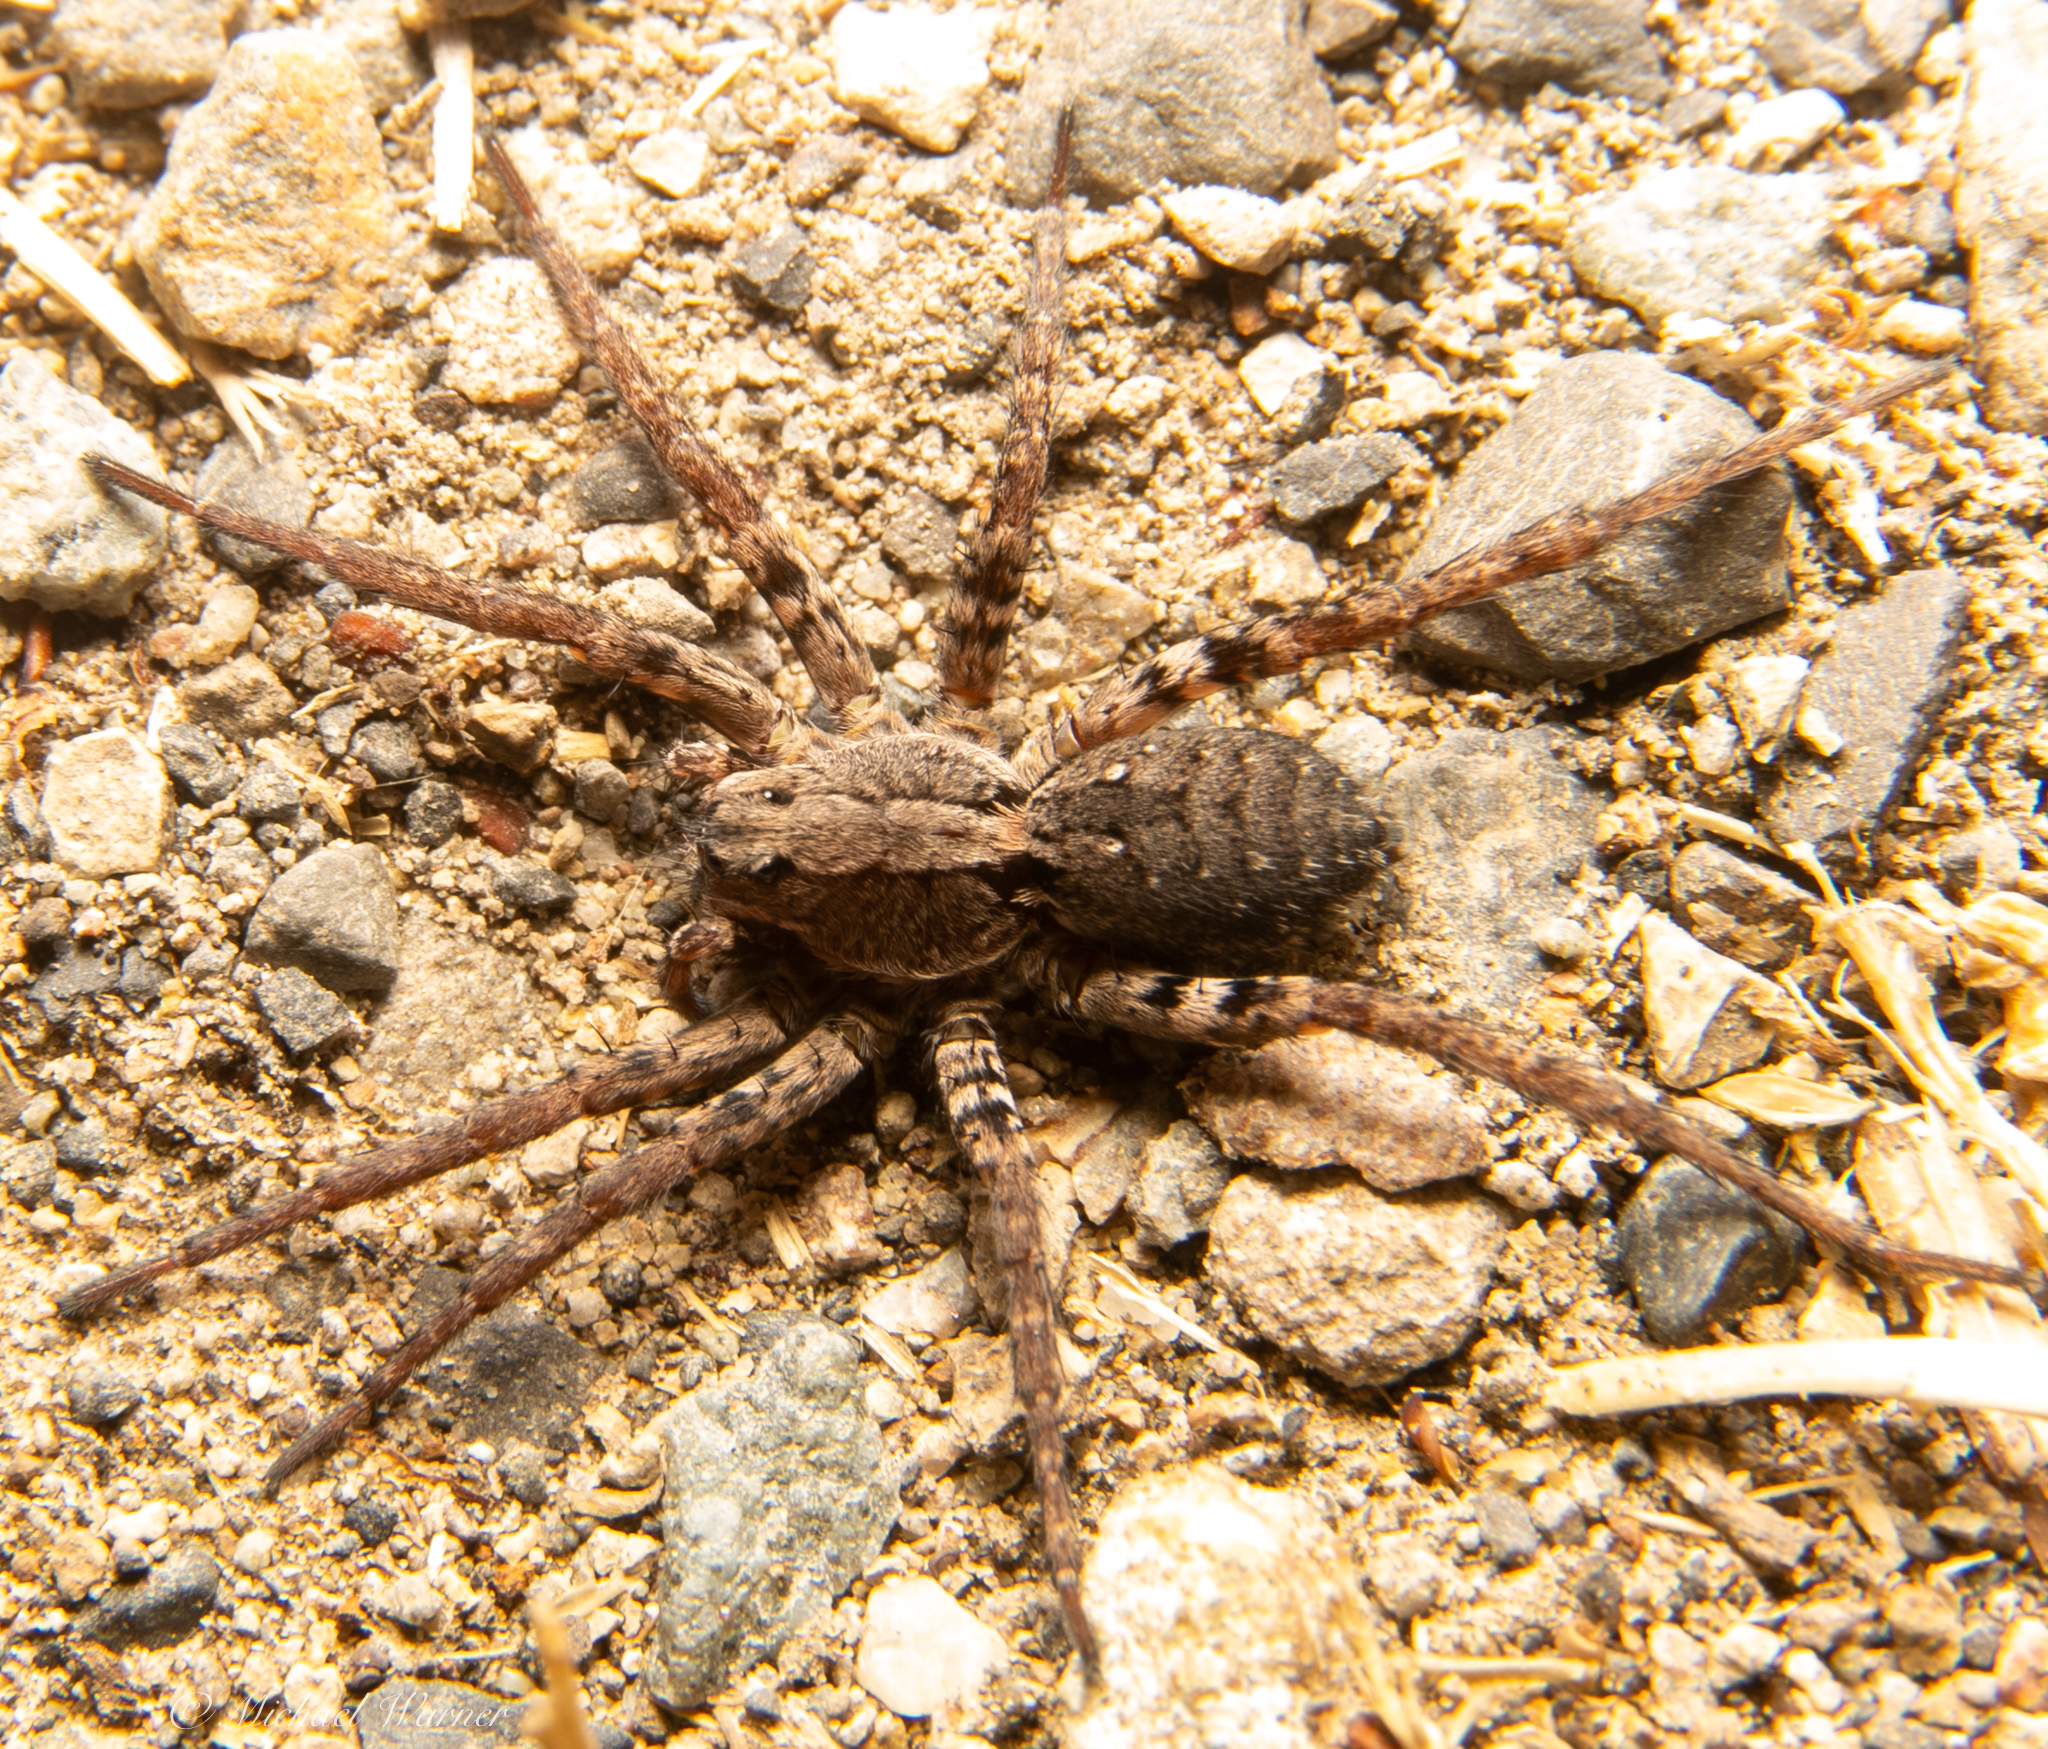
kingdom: Animalia
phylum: Arthropoda
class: Arachnida
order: Araneae
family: Lycosidae
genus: Alopecosa
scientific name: Alopecosa kochi
